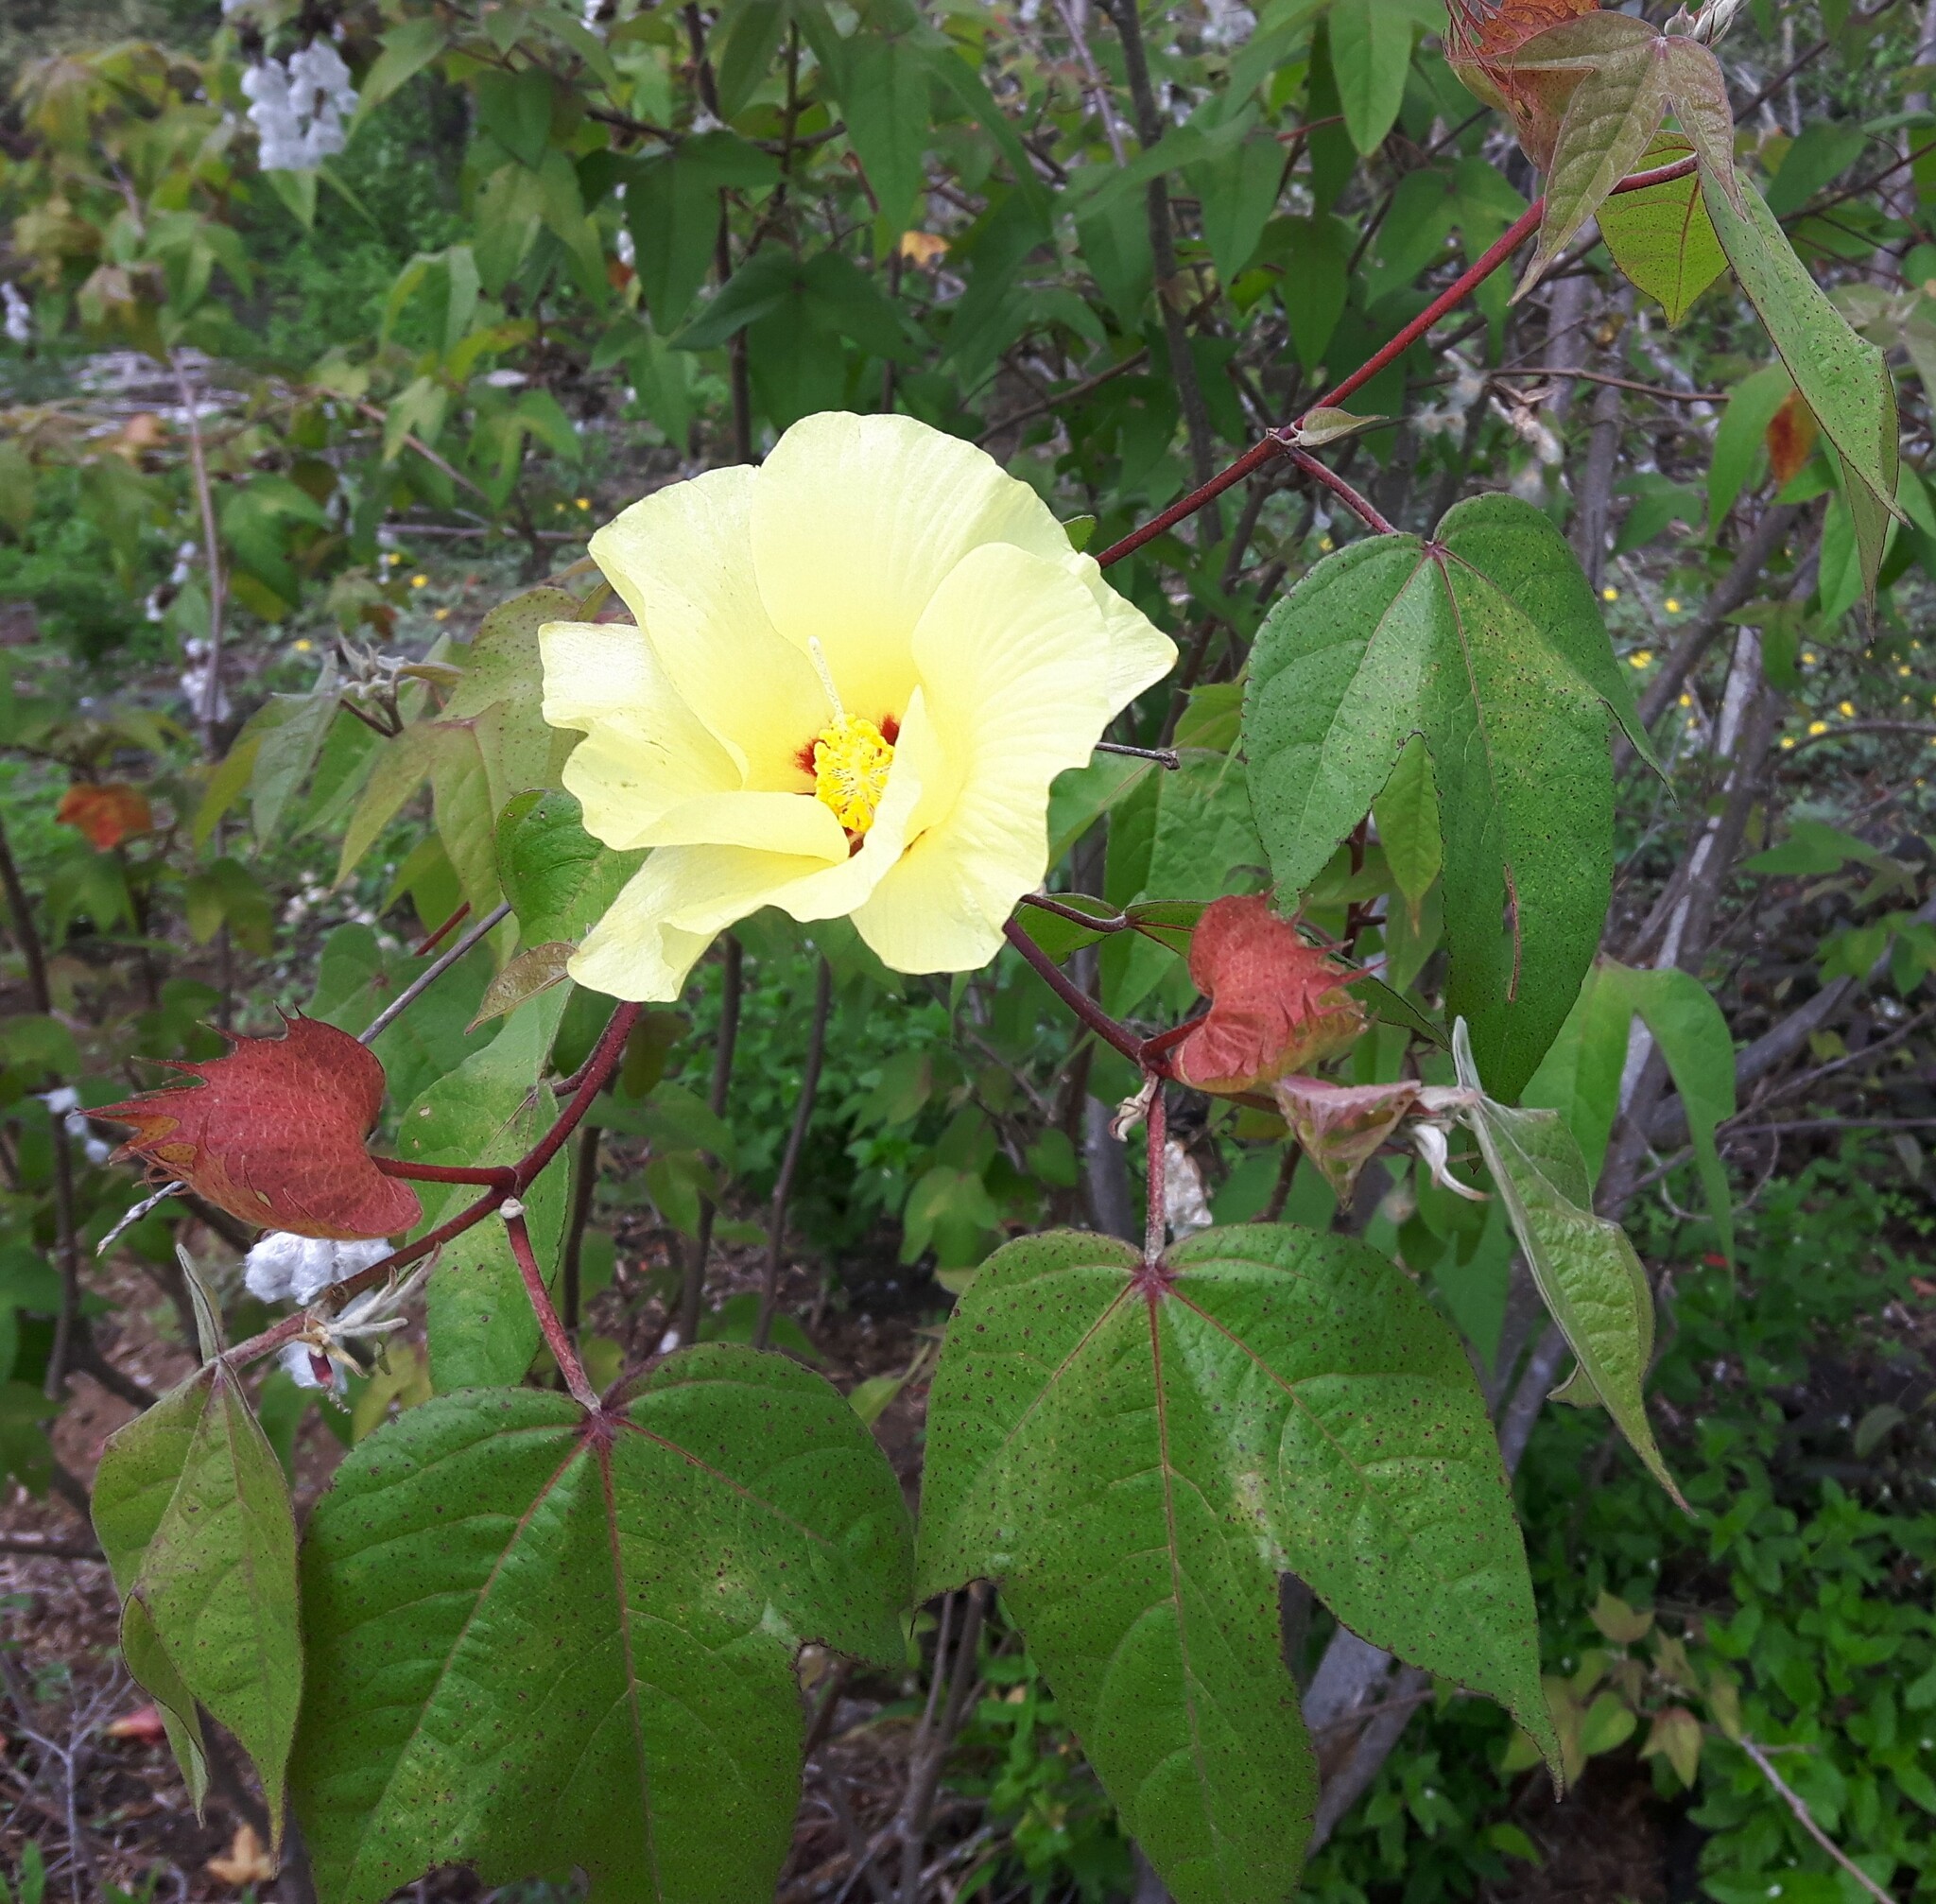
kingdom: Plantae
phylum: Tracheophyta
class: Magnoliopsida
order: Malvales
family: Malvaceae
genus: Gossypium
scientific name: Gossypium darwinii
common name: Darwin's cotton
